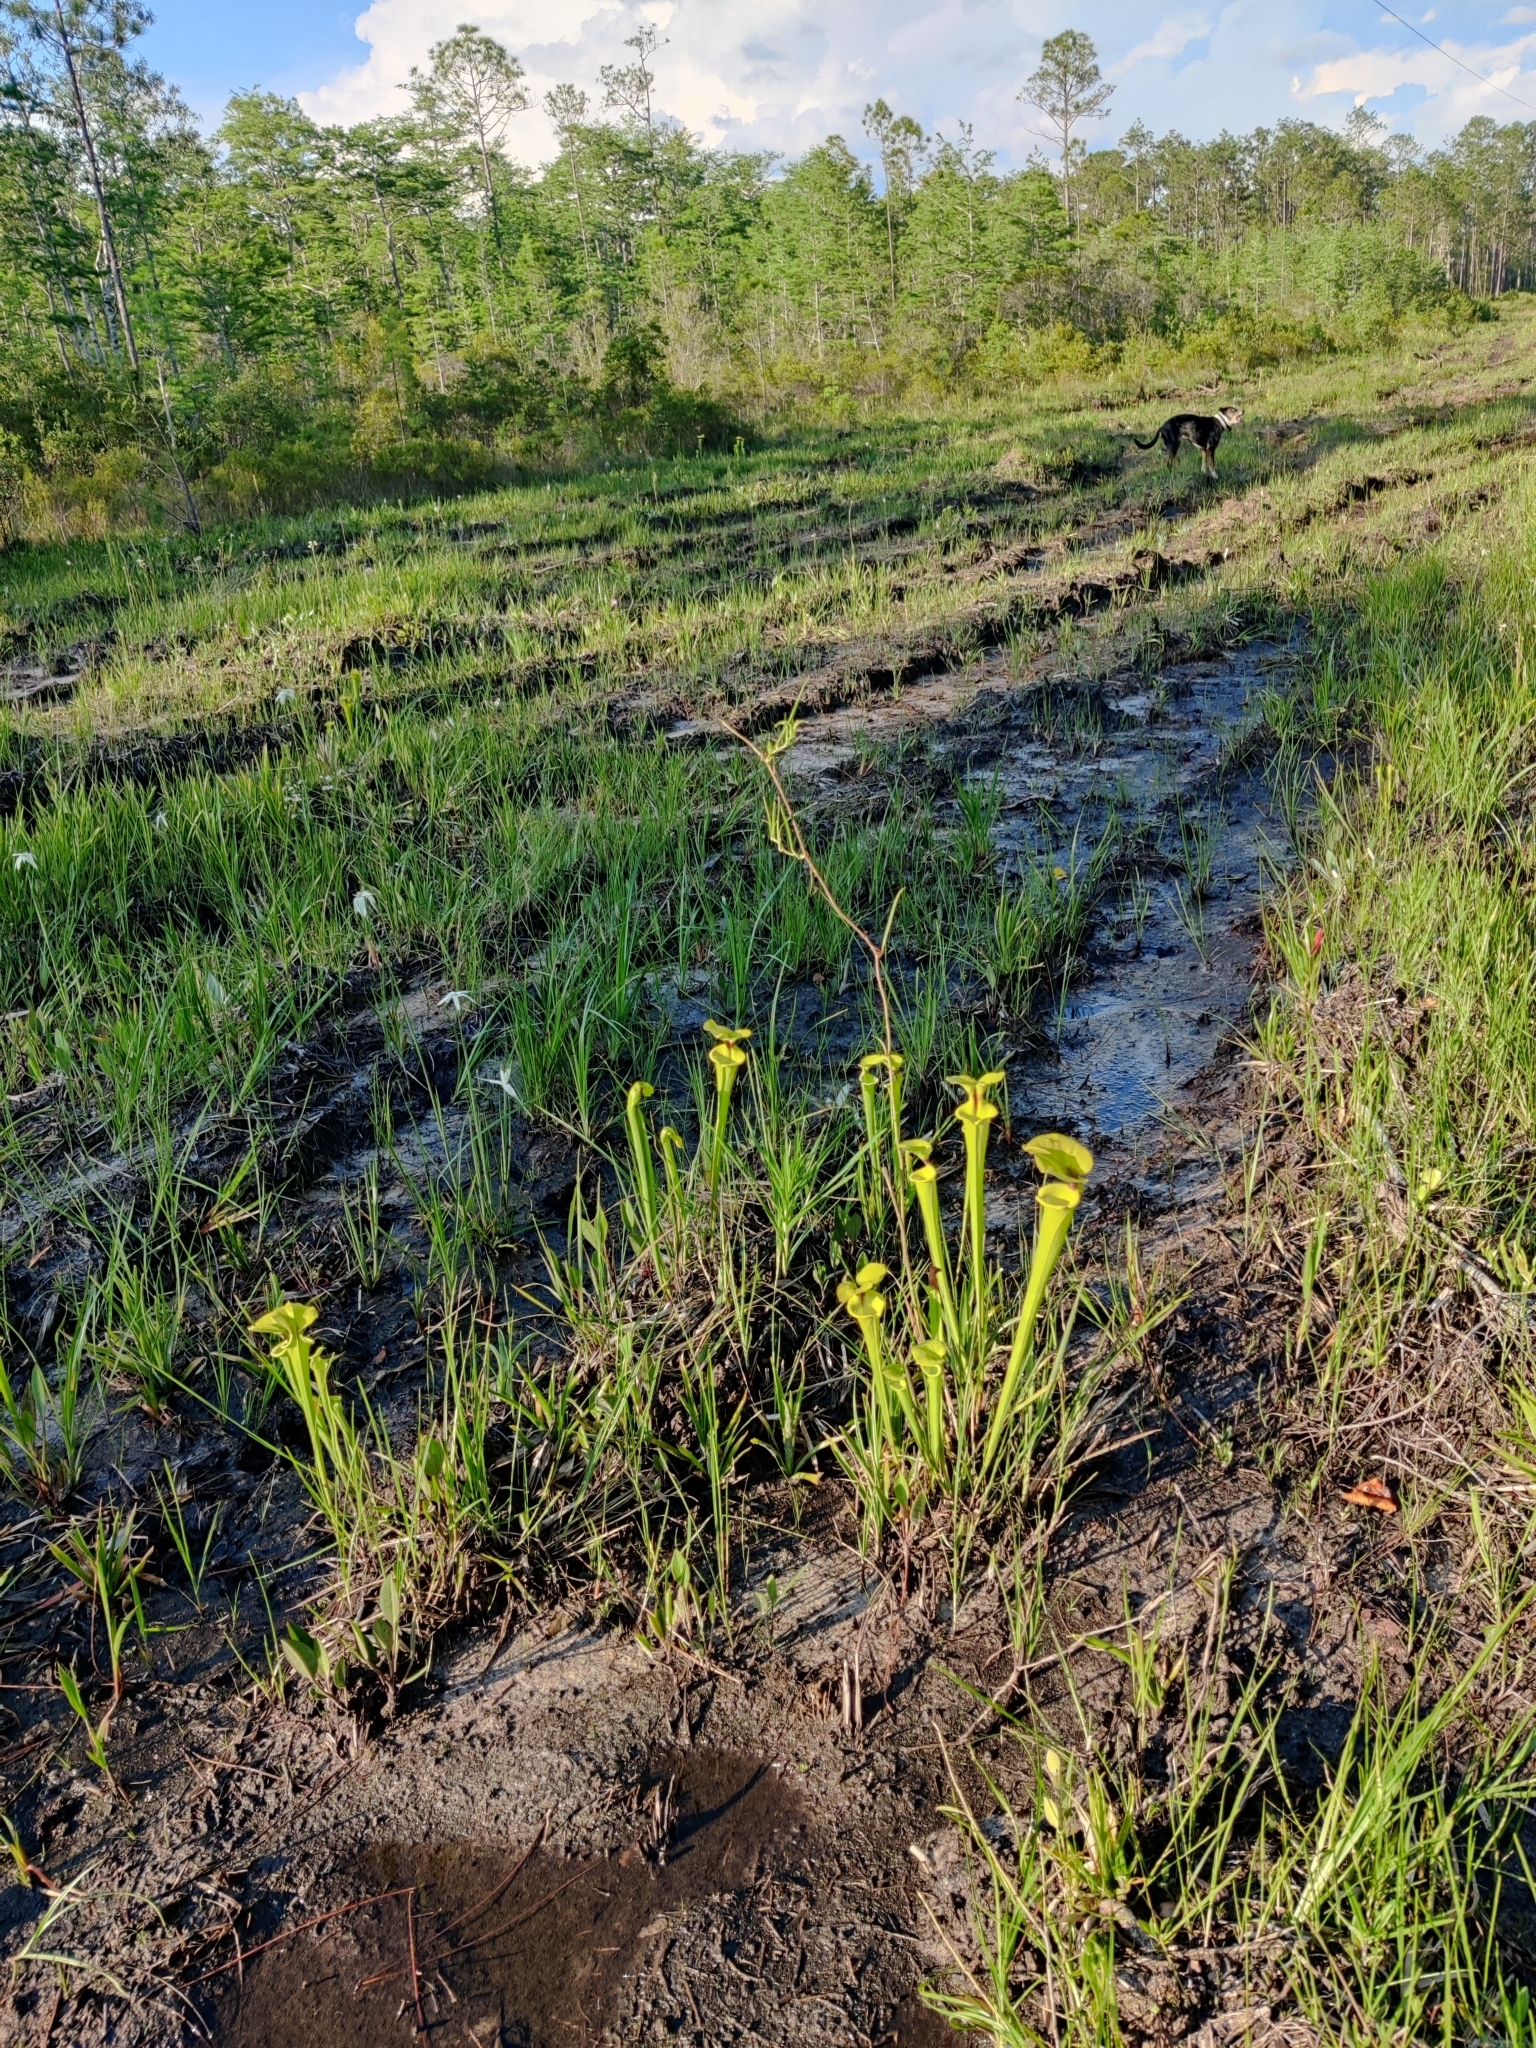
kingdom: Plantae
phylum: Tracheophyta
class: Magnoliopsida
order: Ericales
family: Sarraceniaceae
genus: Sarracenia
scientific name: Sarracenia flava
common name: Trumpets
